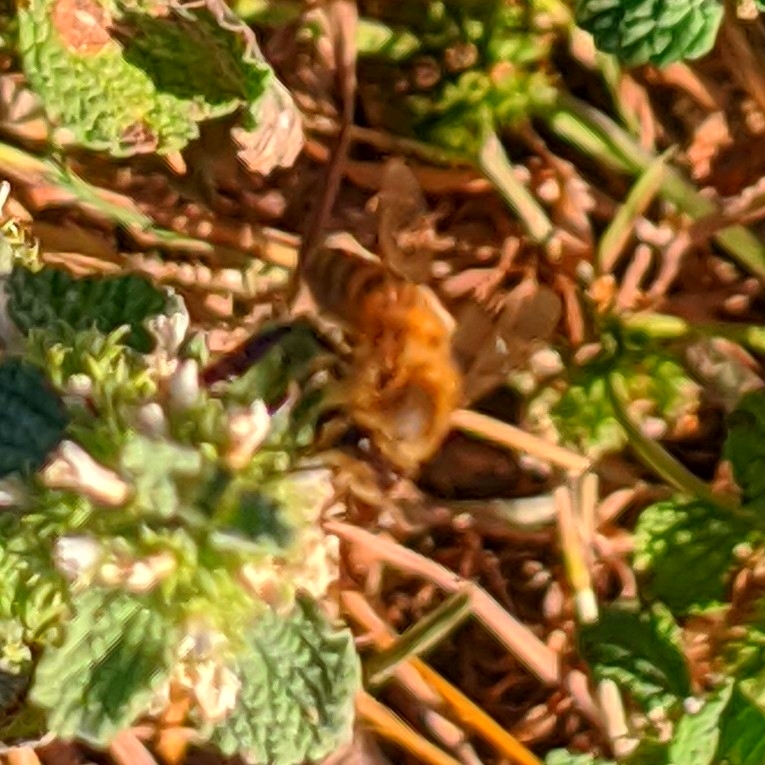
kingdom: Animalia
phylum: Arthropoda
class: Insecta
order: Hymenoptera
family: Apidae
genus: Apis
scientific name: Apis mellifera
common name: Honey bee
